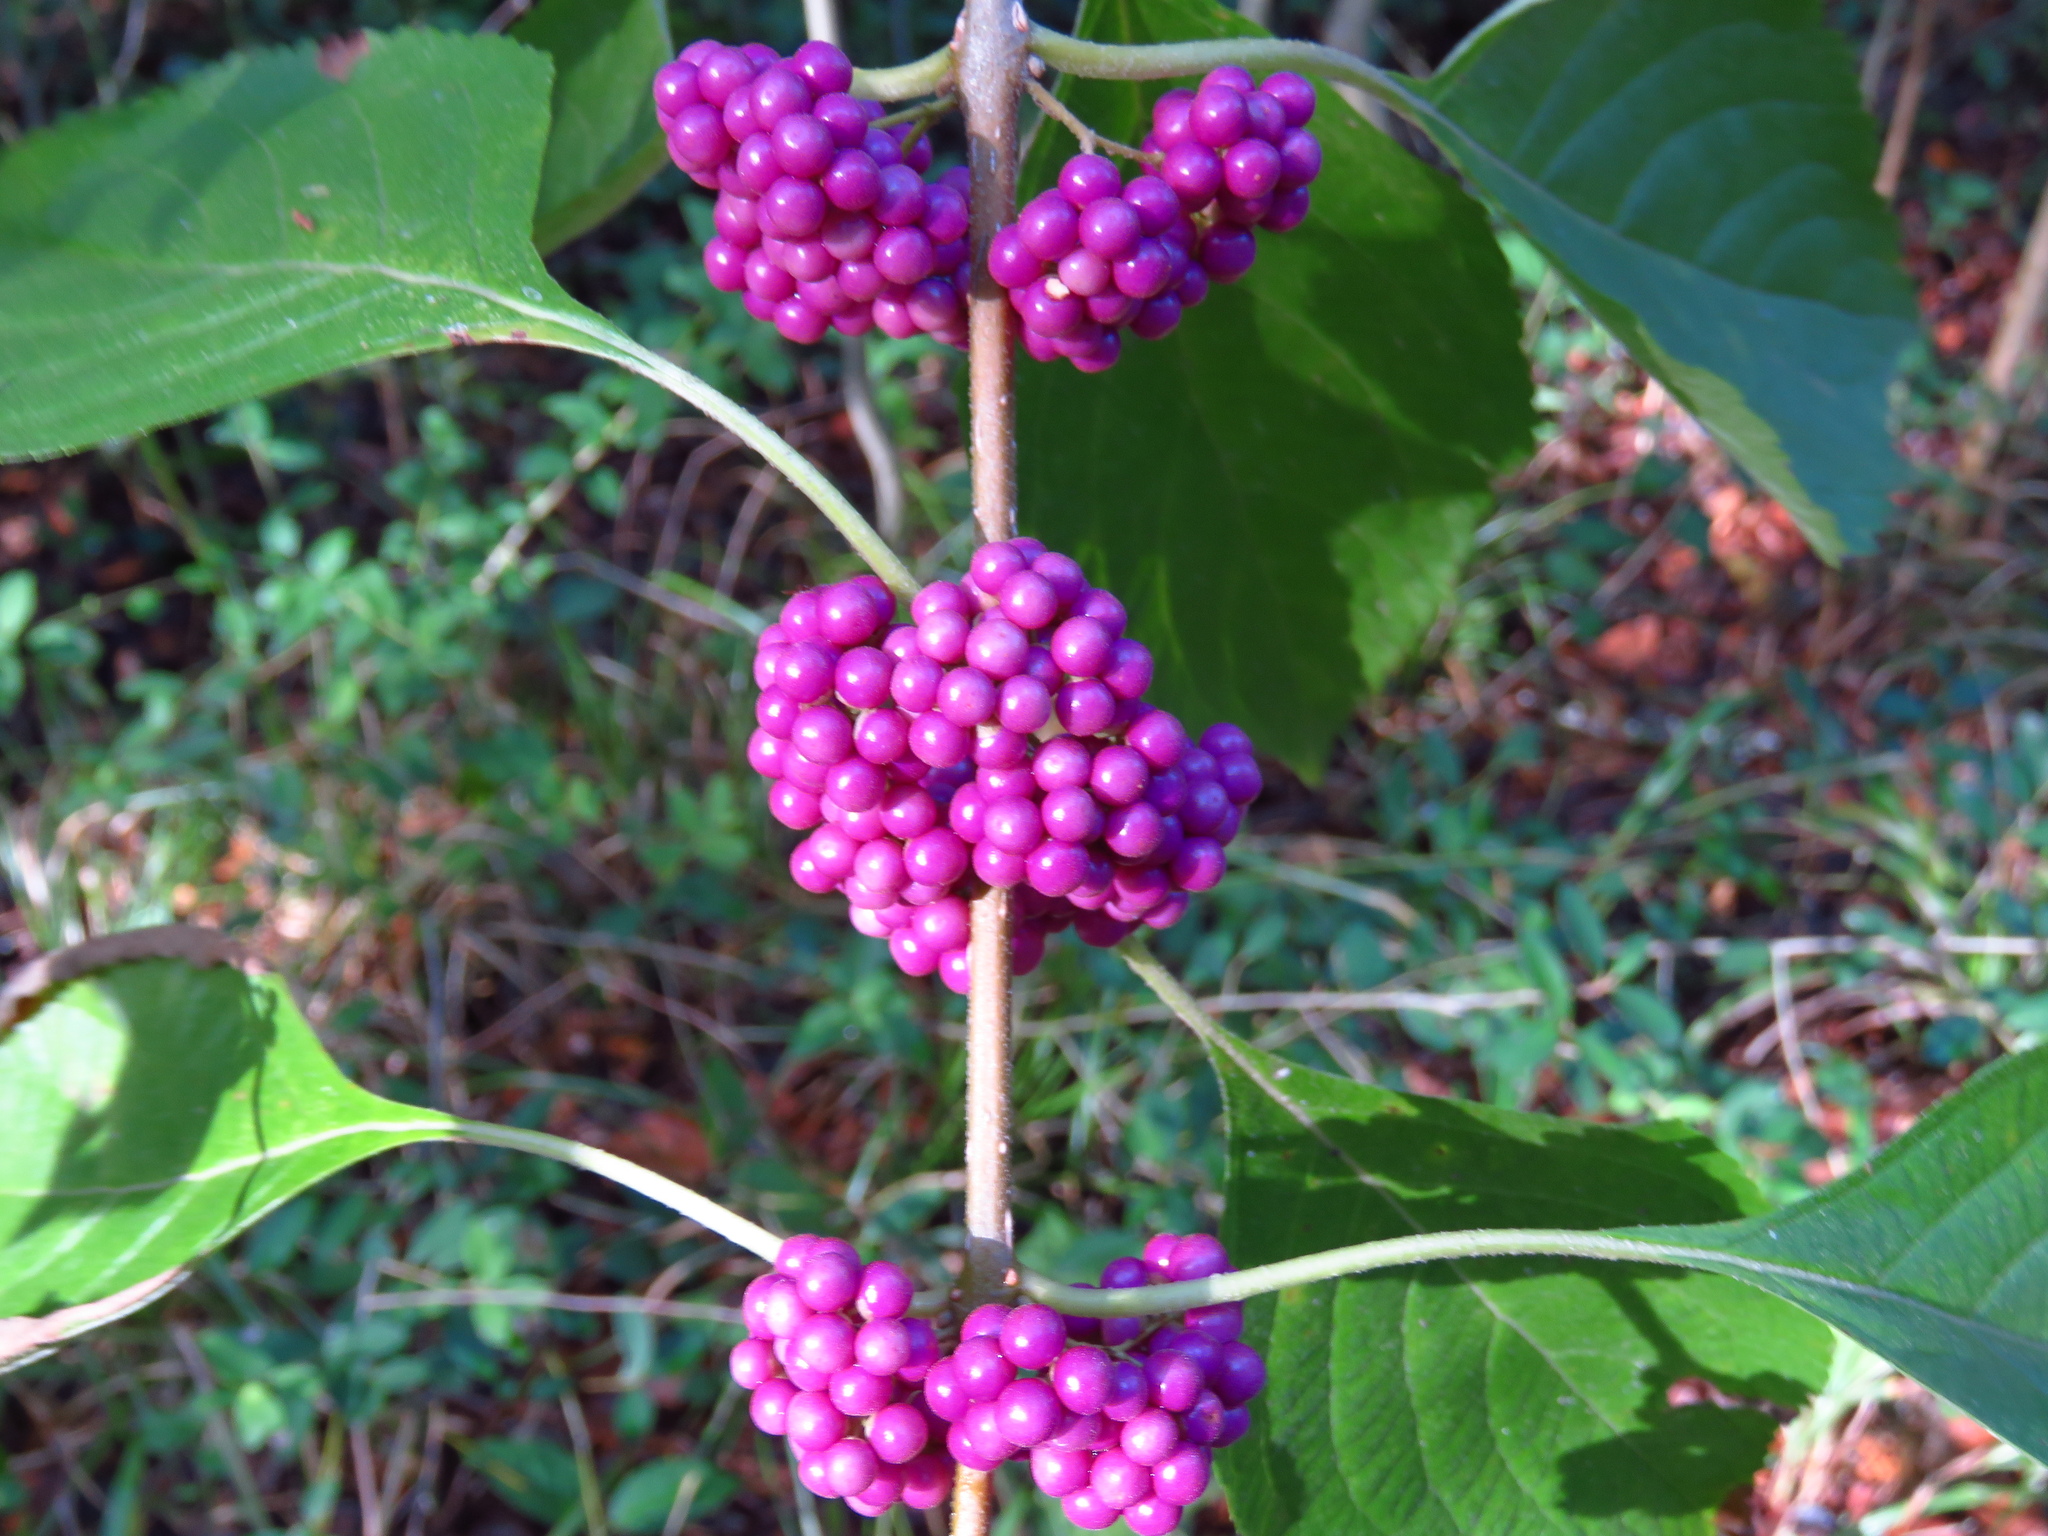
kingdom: Plantae
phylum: Tracheophyta
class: Magnoliopsida
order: Lamiales
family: Lamiaceae
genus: Callicarpa
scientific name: Callicarpa americana
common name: American beautyberry
